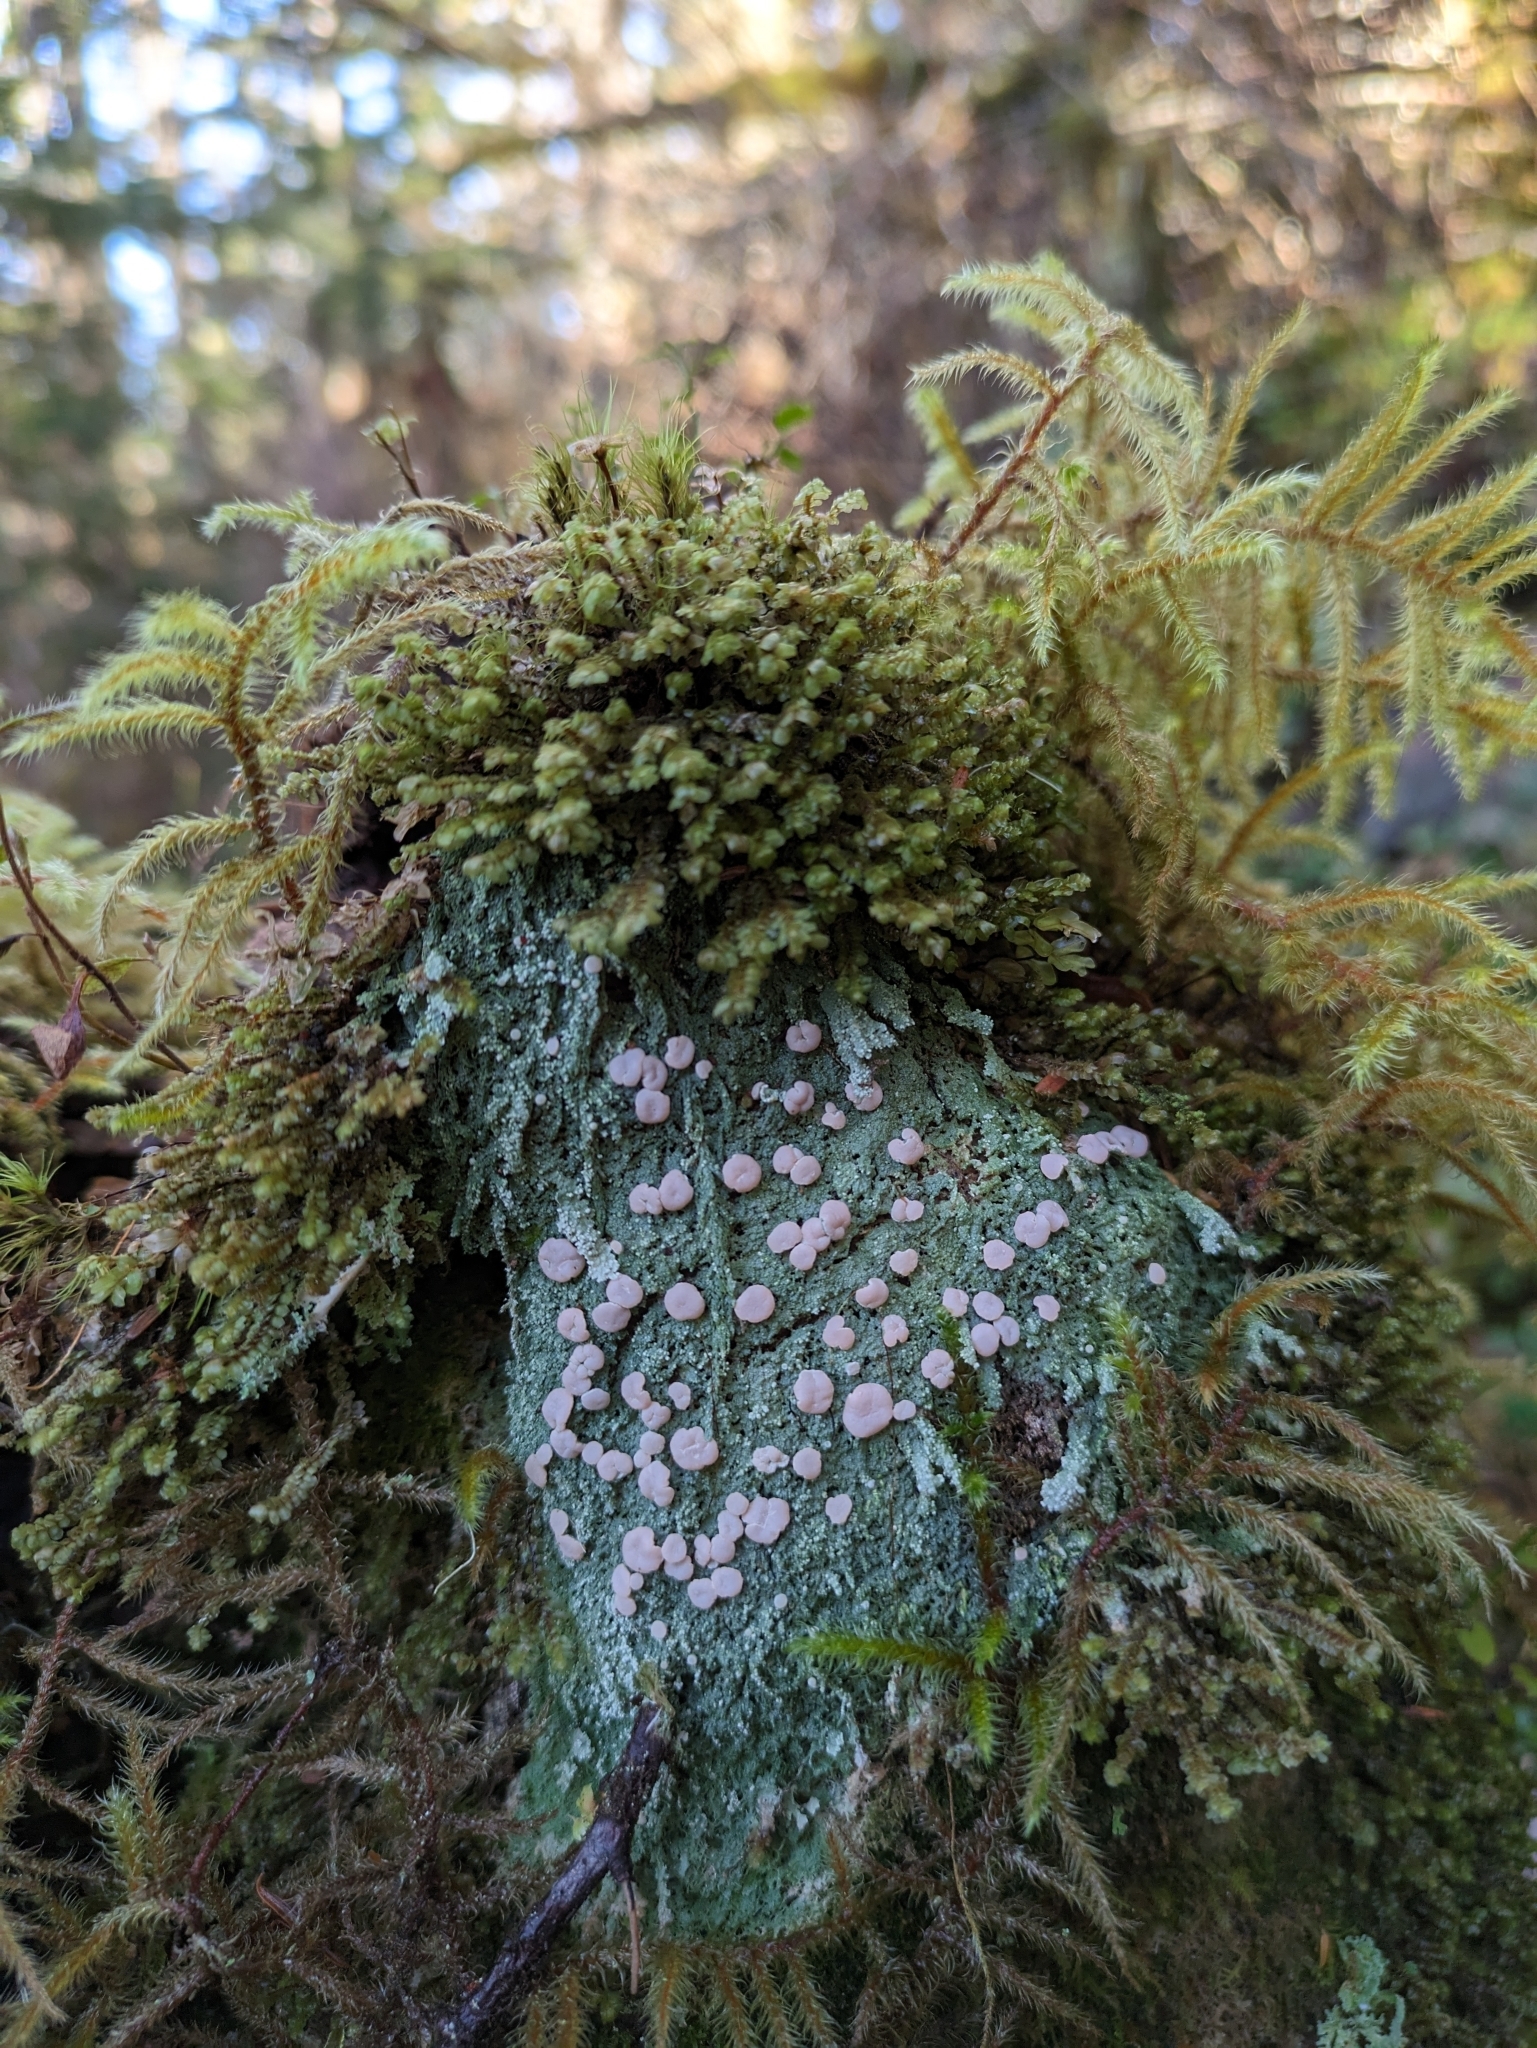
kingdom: Fungi
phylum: Ascomycota
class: Lecanoromycetes
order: Pertusariales
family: Icmadophilaceae
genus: Icmadophila
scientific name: Icmadophila ericetorum
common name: Candy lichen
